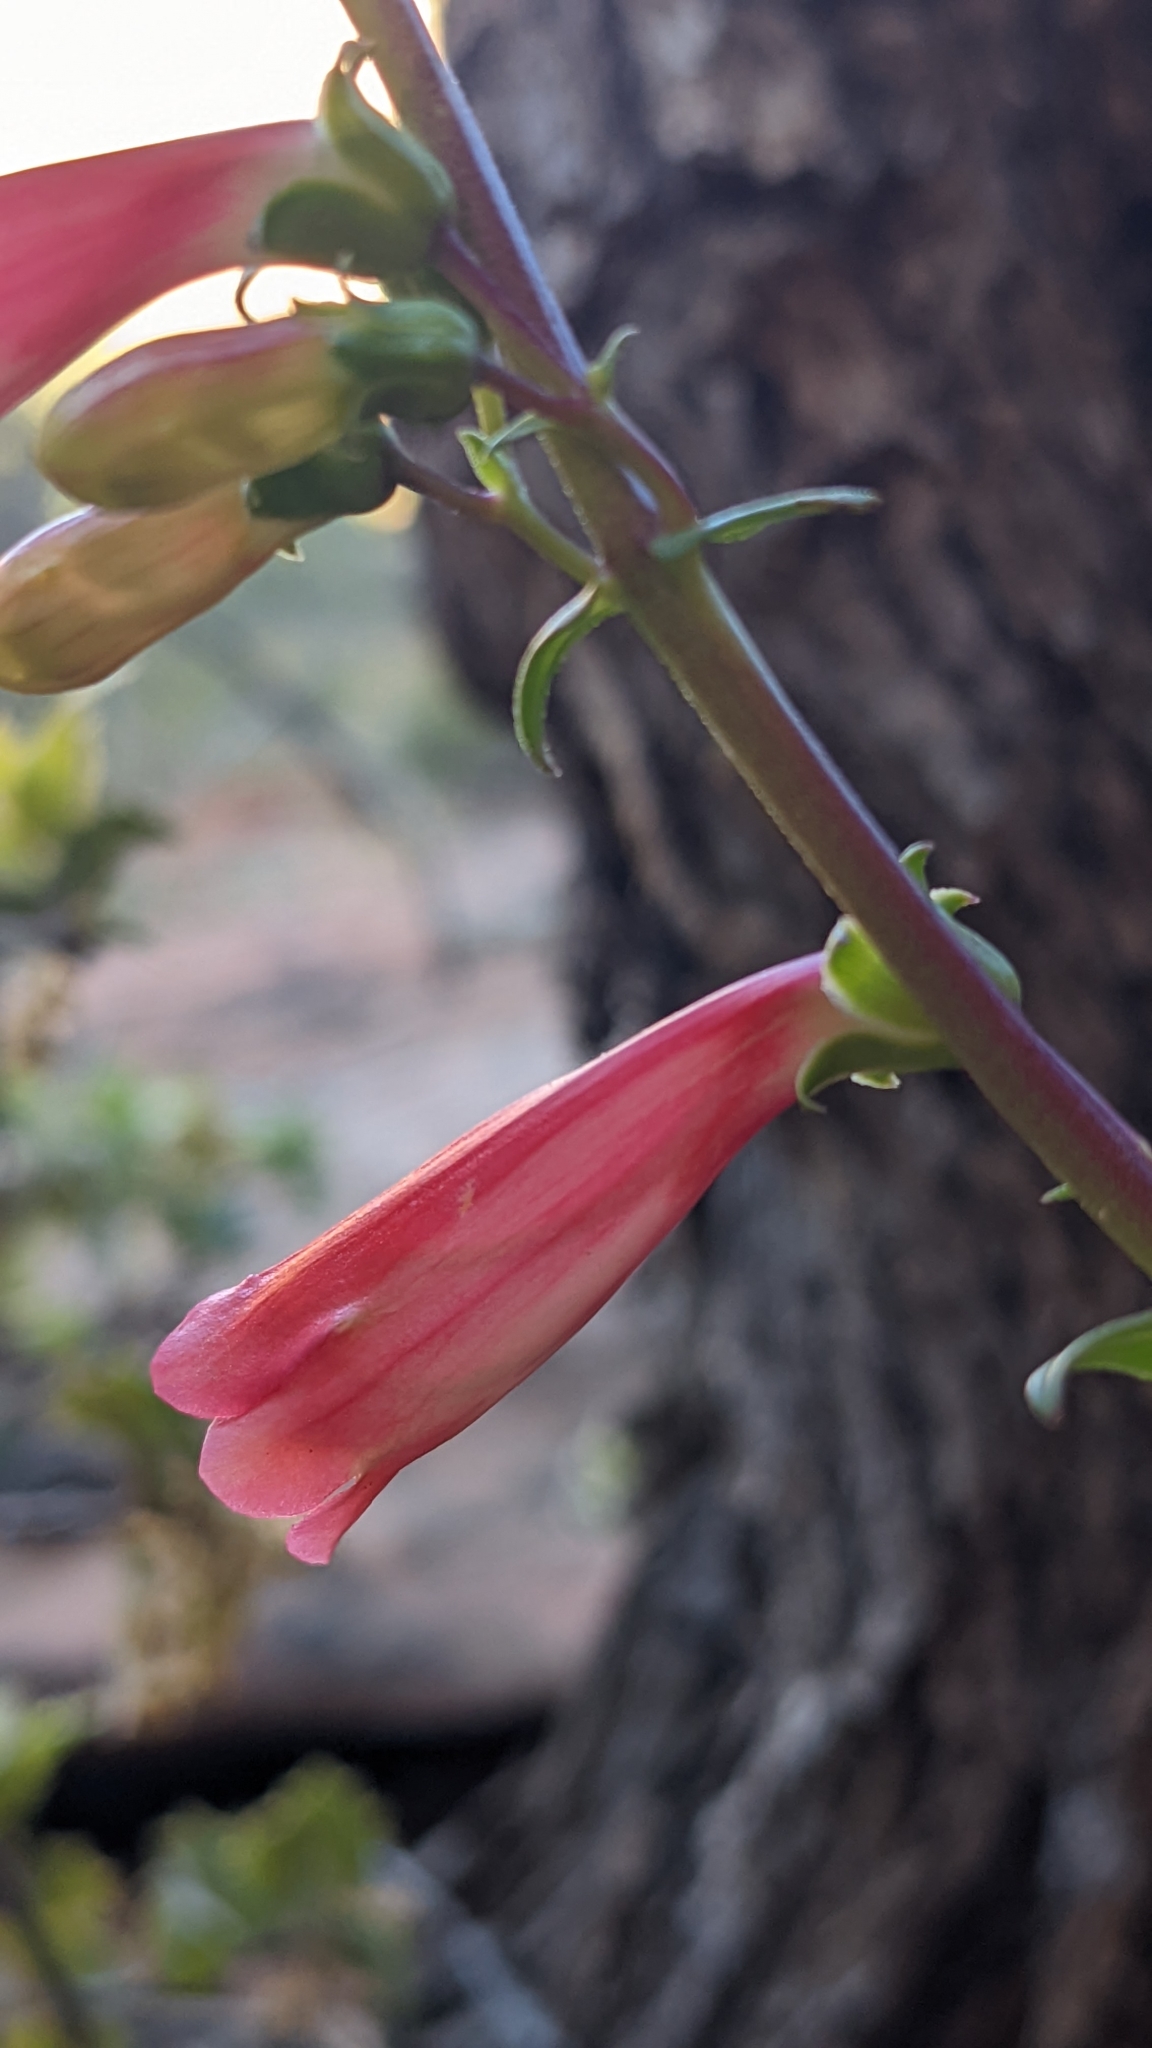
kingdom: Plantae
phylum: Tracheophyta
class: Magnoliopsida
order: Lamiales
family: Plantaginaceae
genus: Penstemon
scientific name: Penstemon eatonii
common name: Eaton's penstemon
